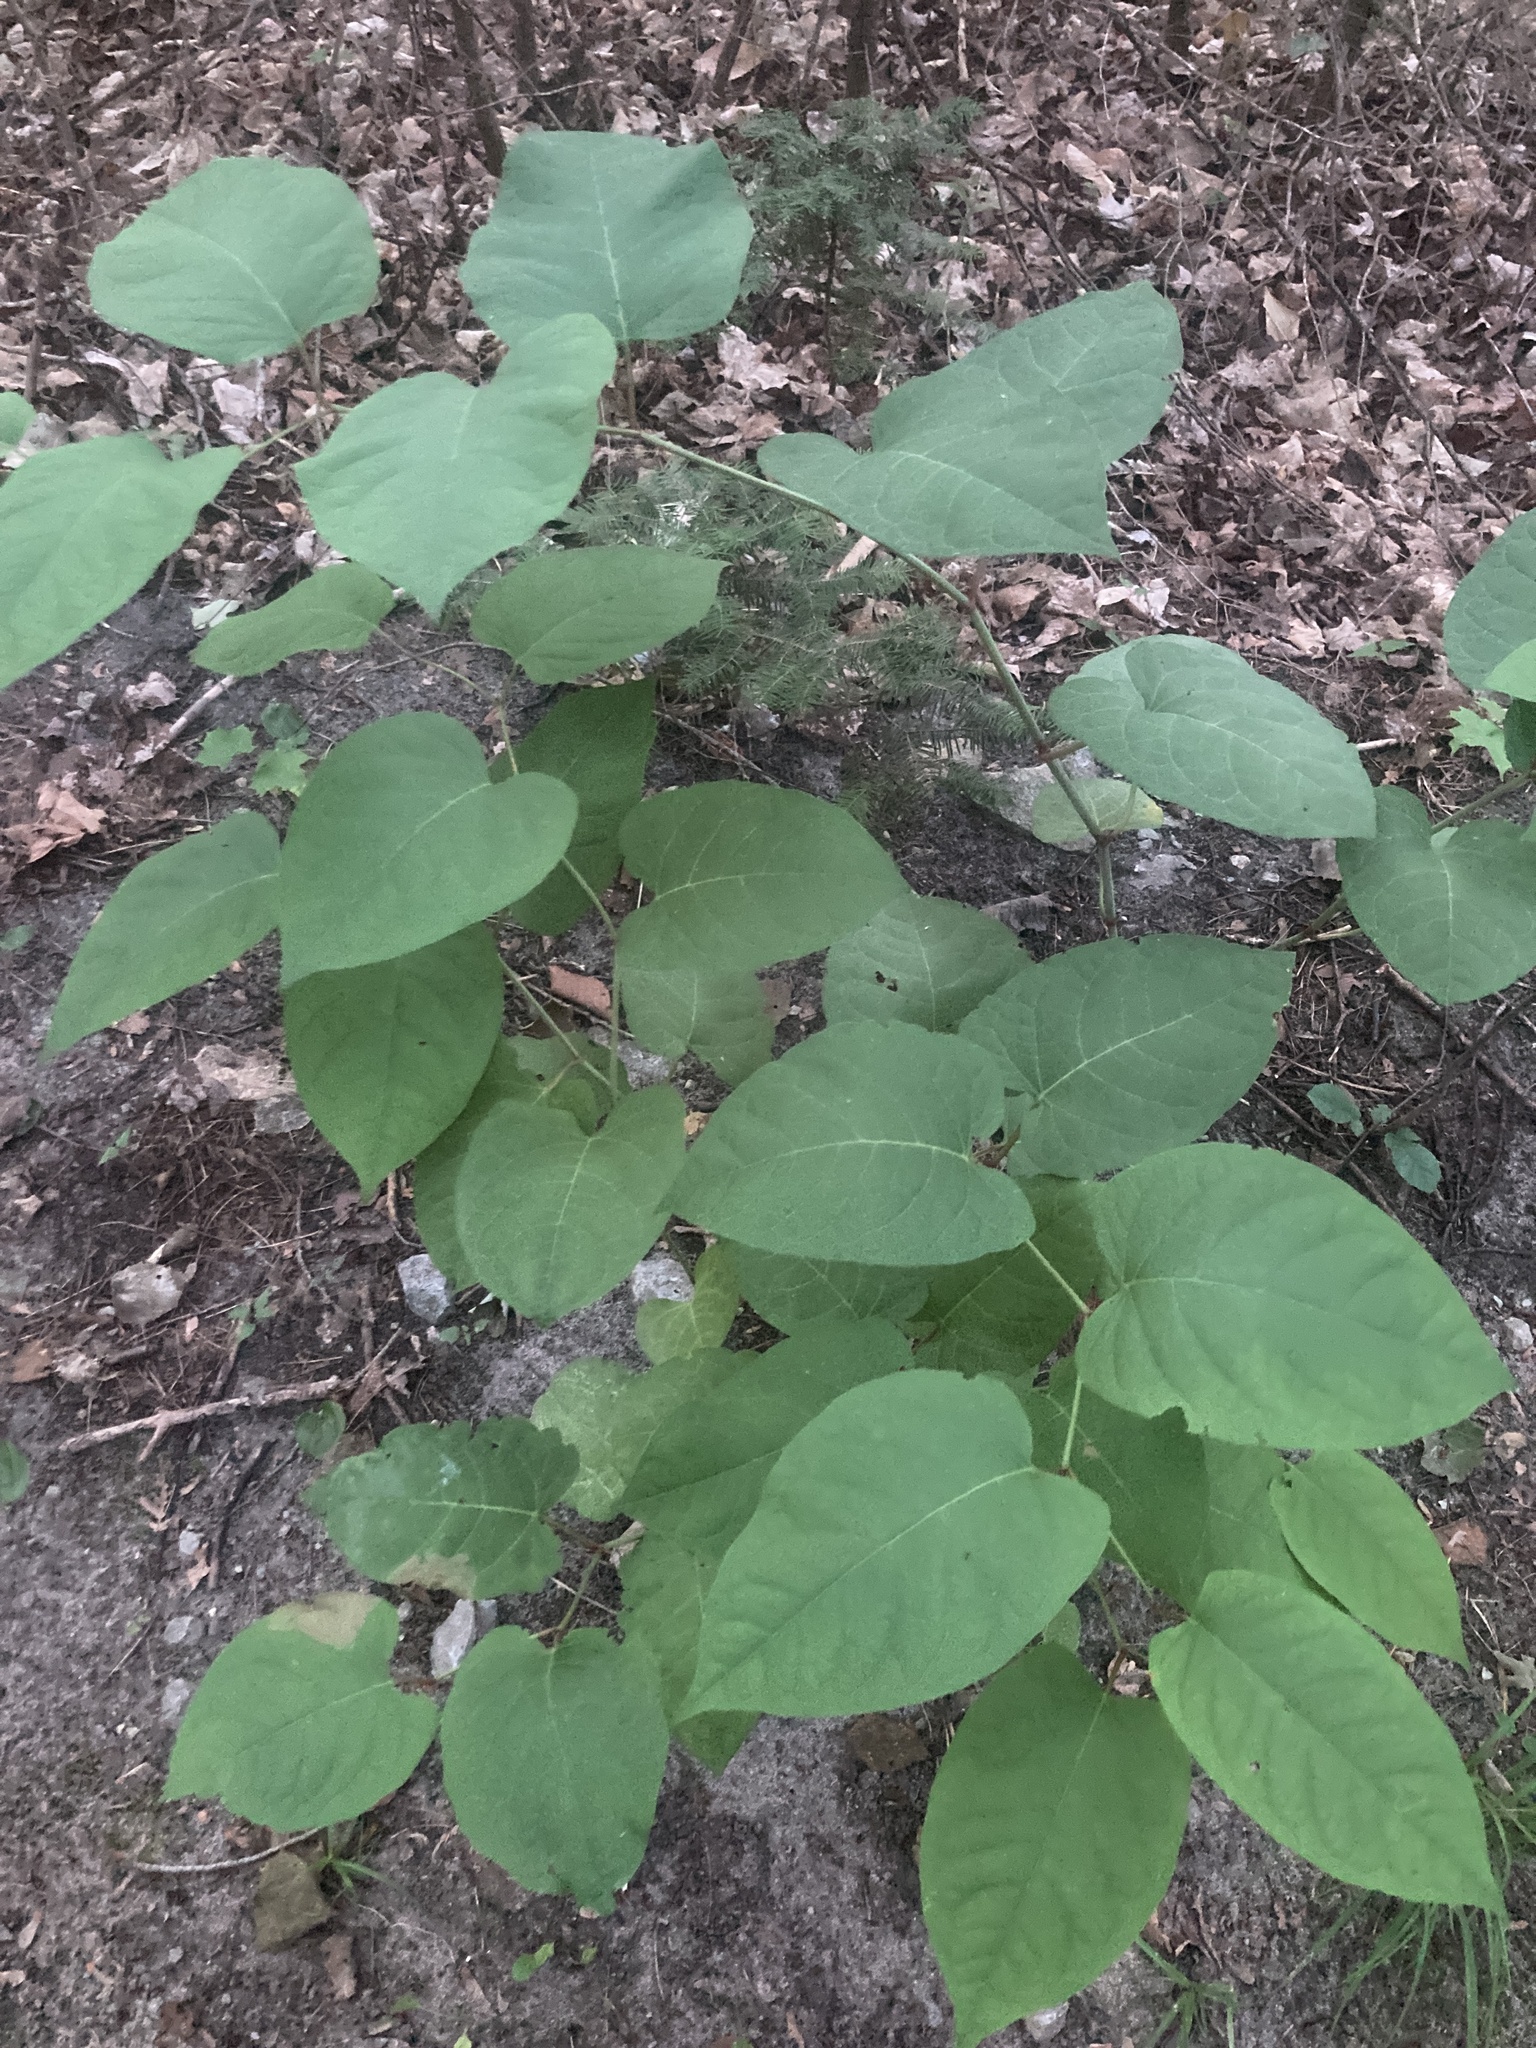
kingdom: Plantae
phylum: Tracheophyta
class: Magnoliopsida
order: Caryophyllales
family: Polygonaceae
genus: Reynoutria
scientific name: Reynoutria sachalinensis
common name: Giant knotweed
